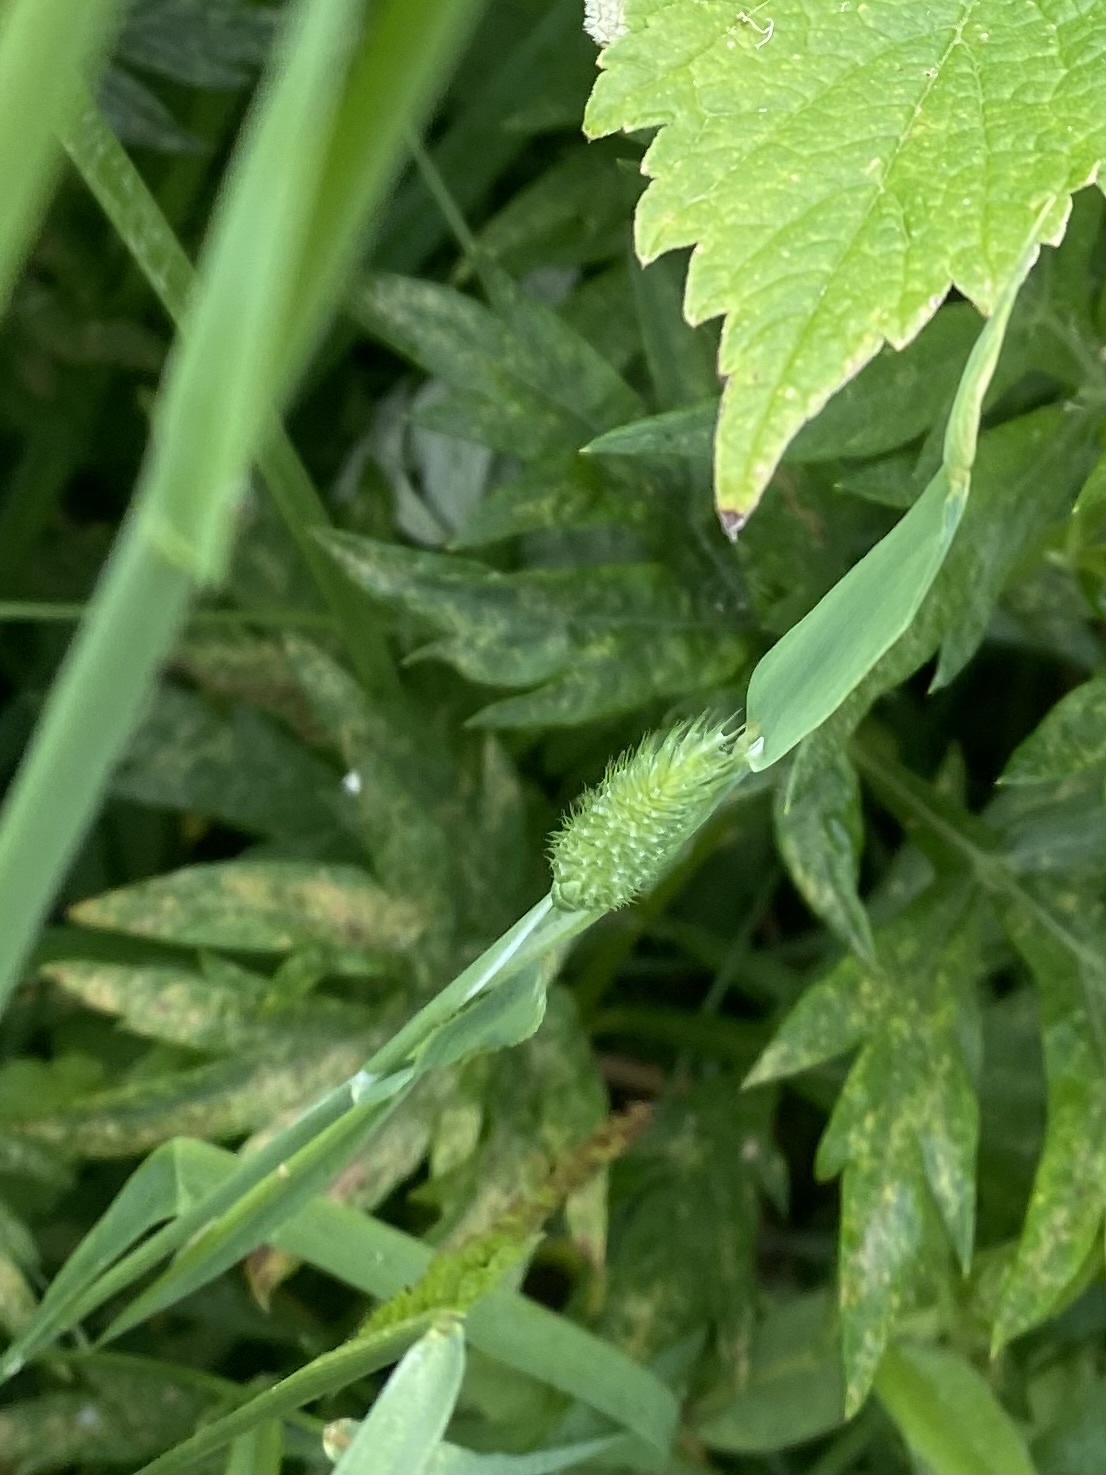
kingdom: Plantae
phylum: Tracheophyta
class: Liliopsida
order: Poales
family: Poaceae
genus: Phleum
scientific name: Phleum pratense
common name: Timothy grass
